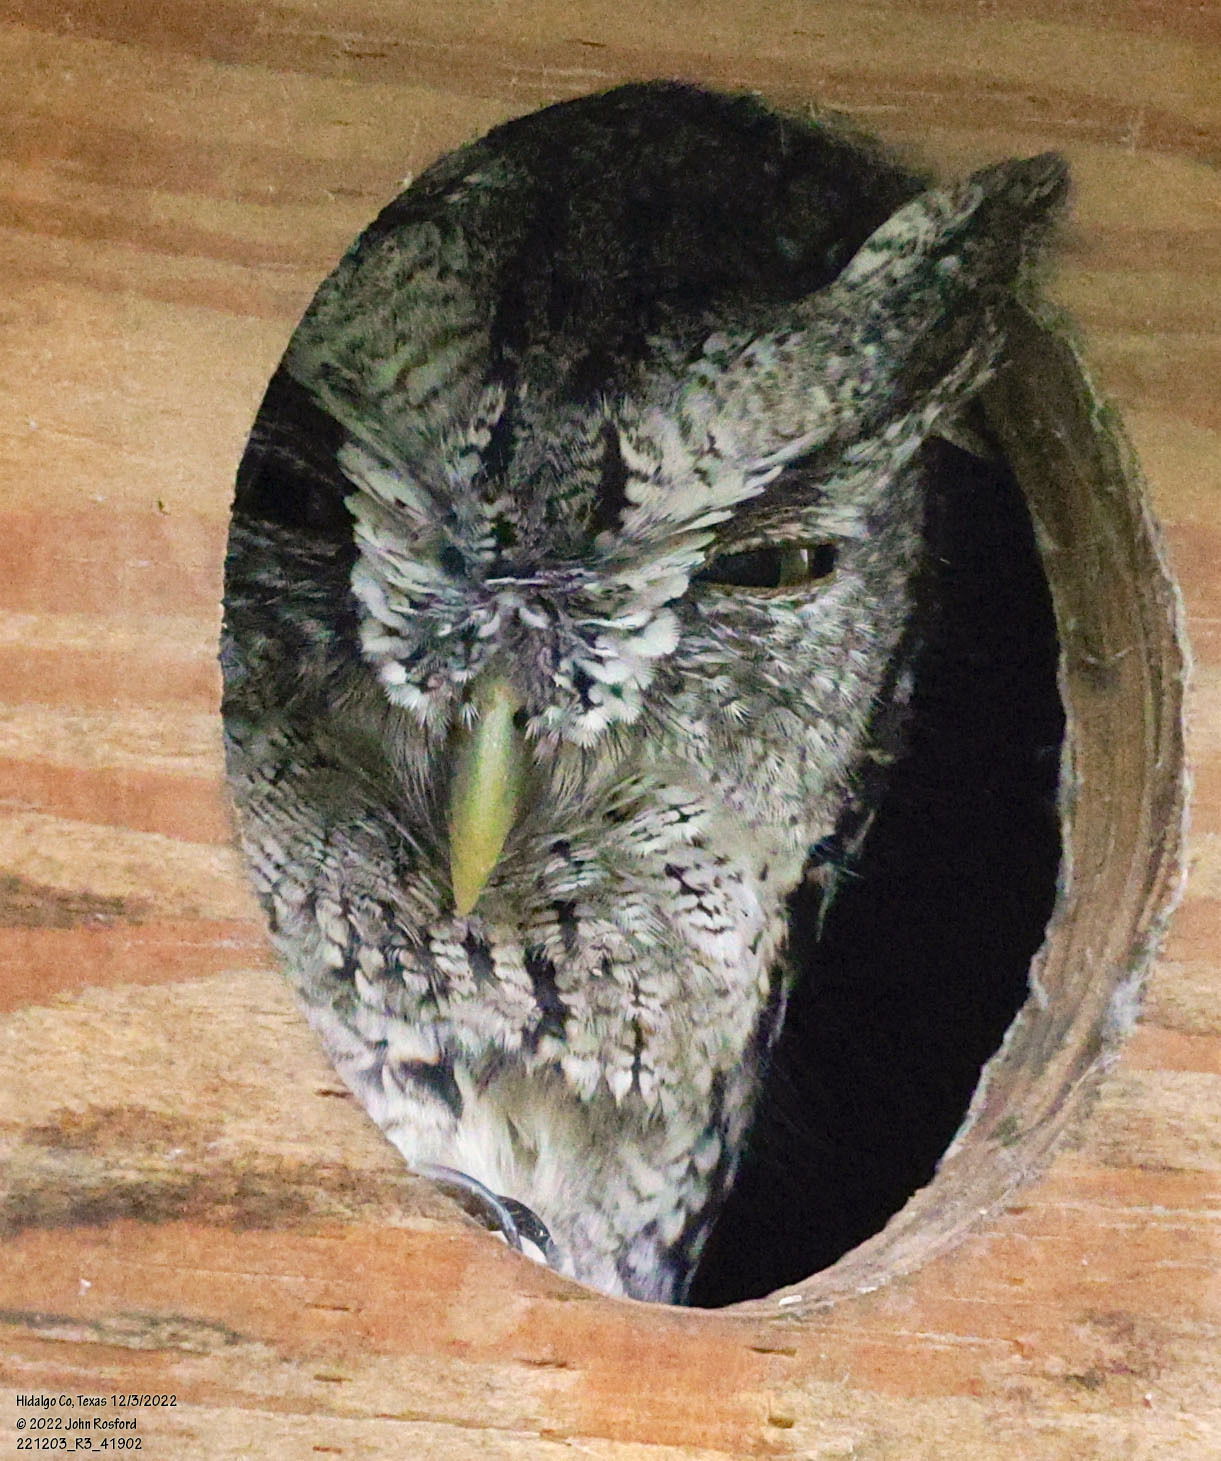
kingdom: Animalia
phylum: Chordata
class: Aves
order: Strigiformes
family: Strigidae
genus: Megascops
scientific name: Megascops asio
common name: Eastern screech-owl
